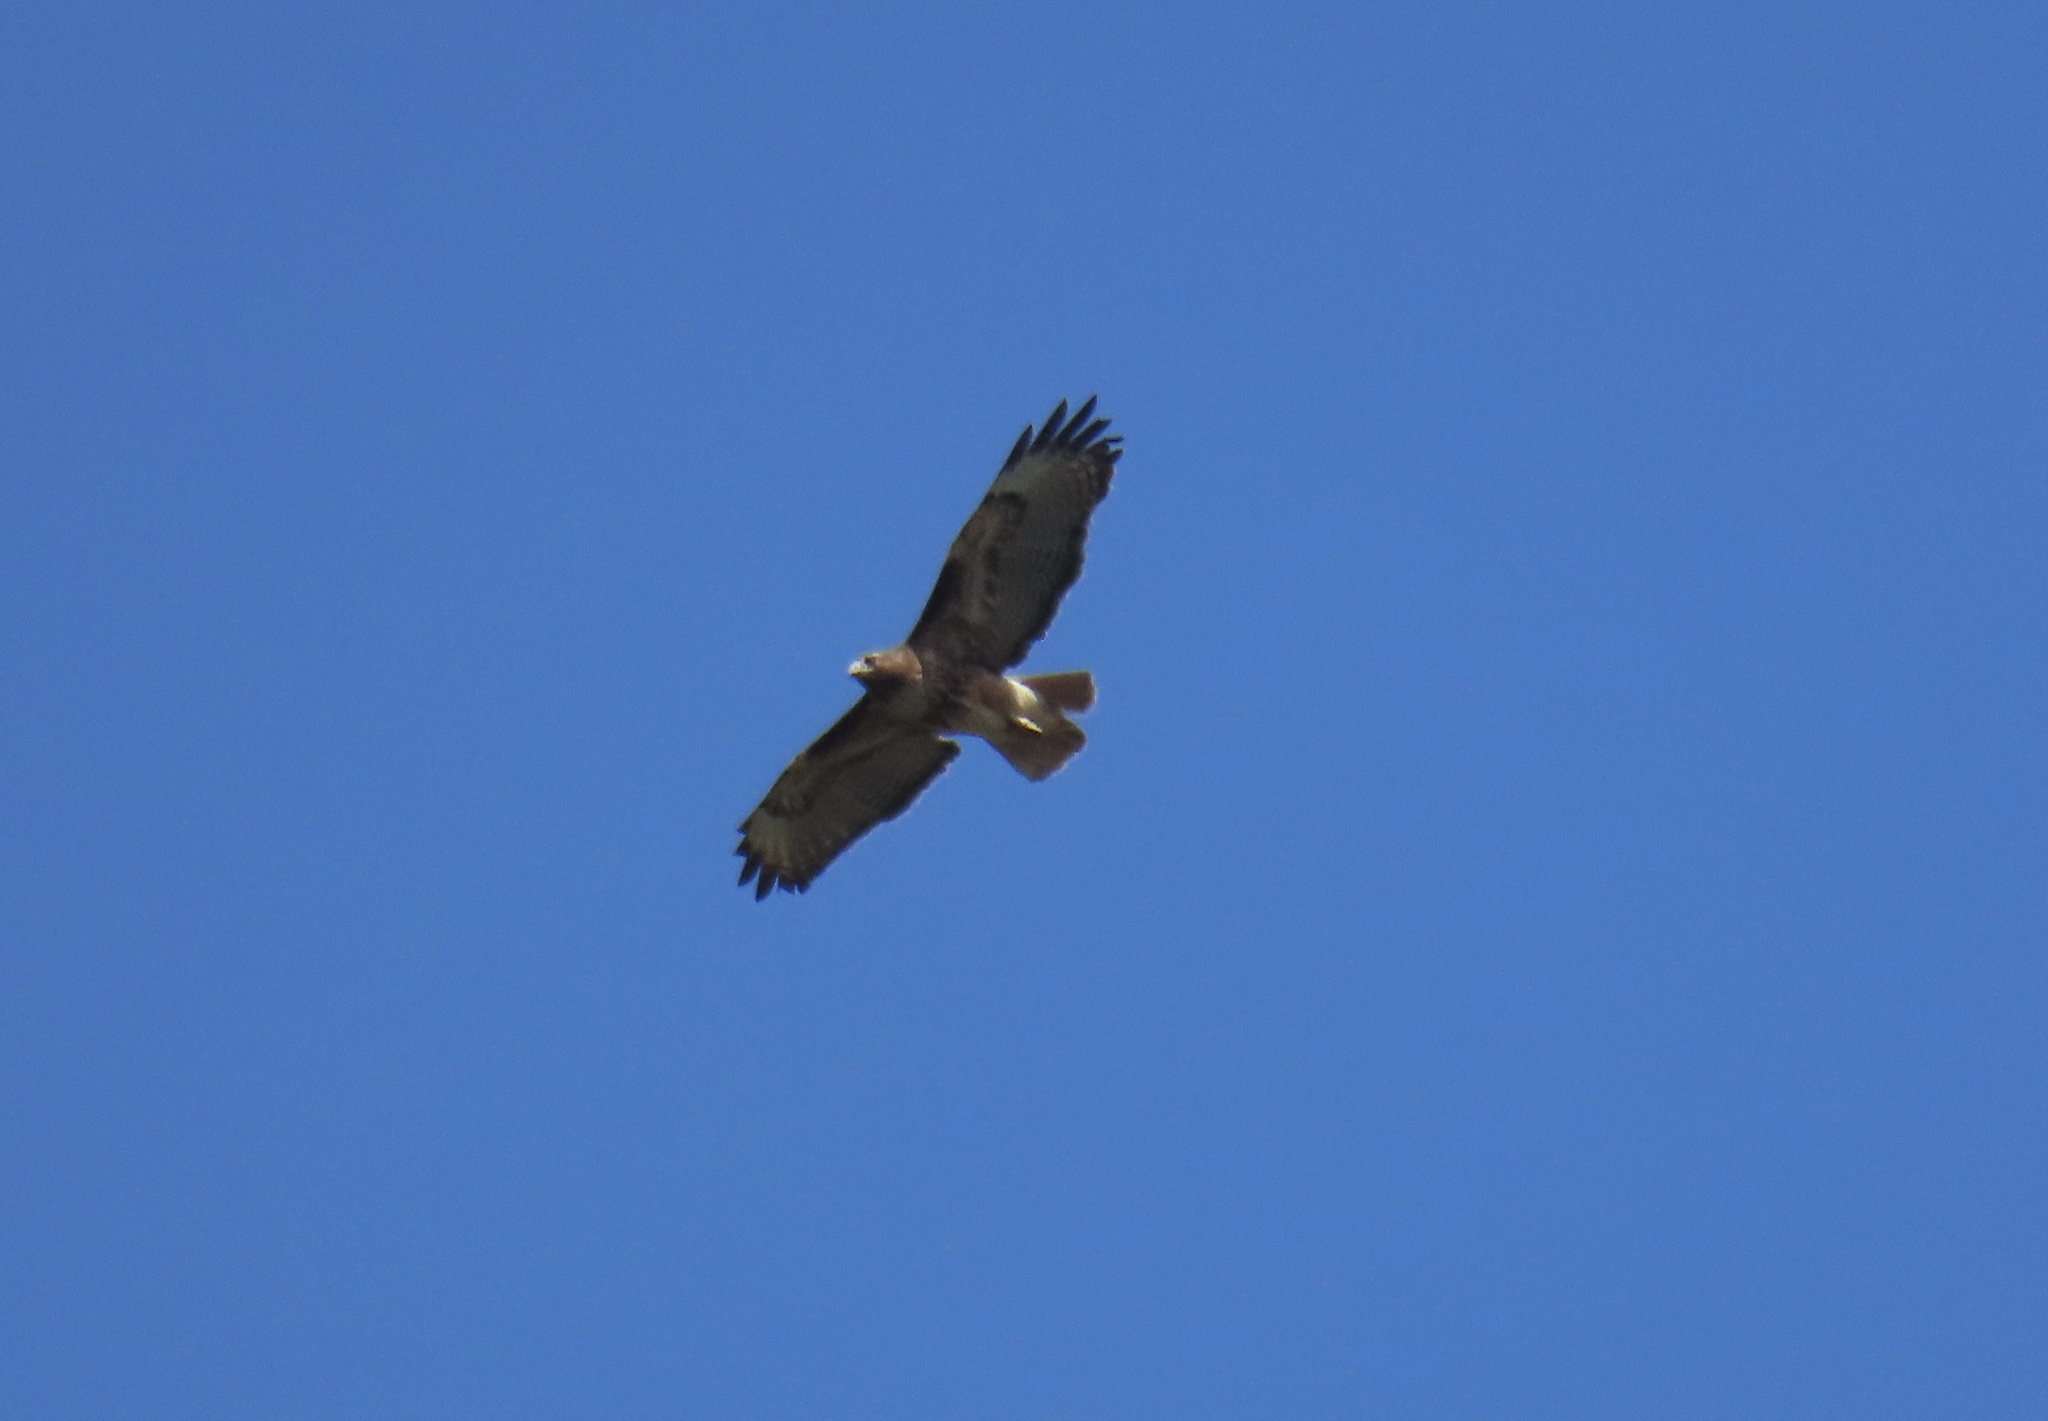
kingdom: Animalia
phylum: Chordata
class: Aves
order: Accipitriformes
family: Accipitridae
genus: Buteo
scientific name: Buteo jamaicensis
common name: Red-tailed hawk
